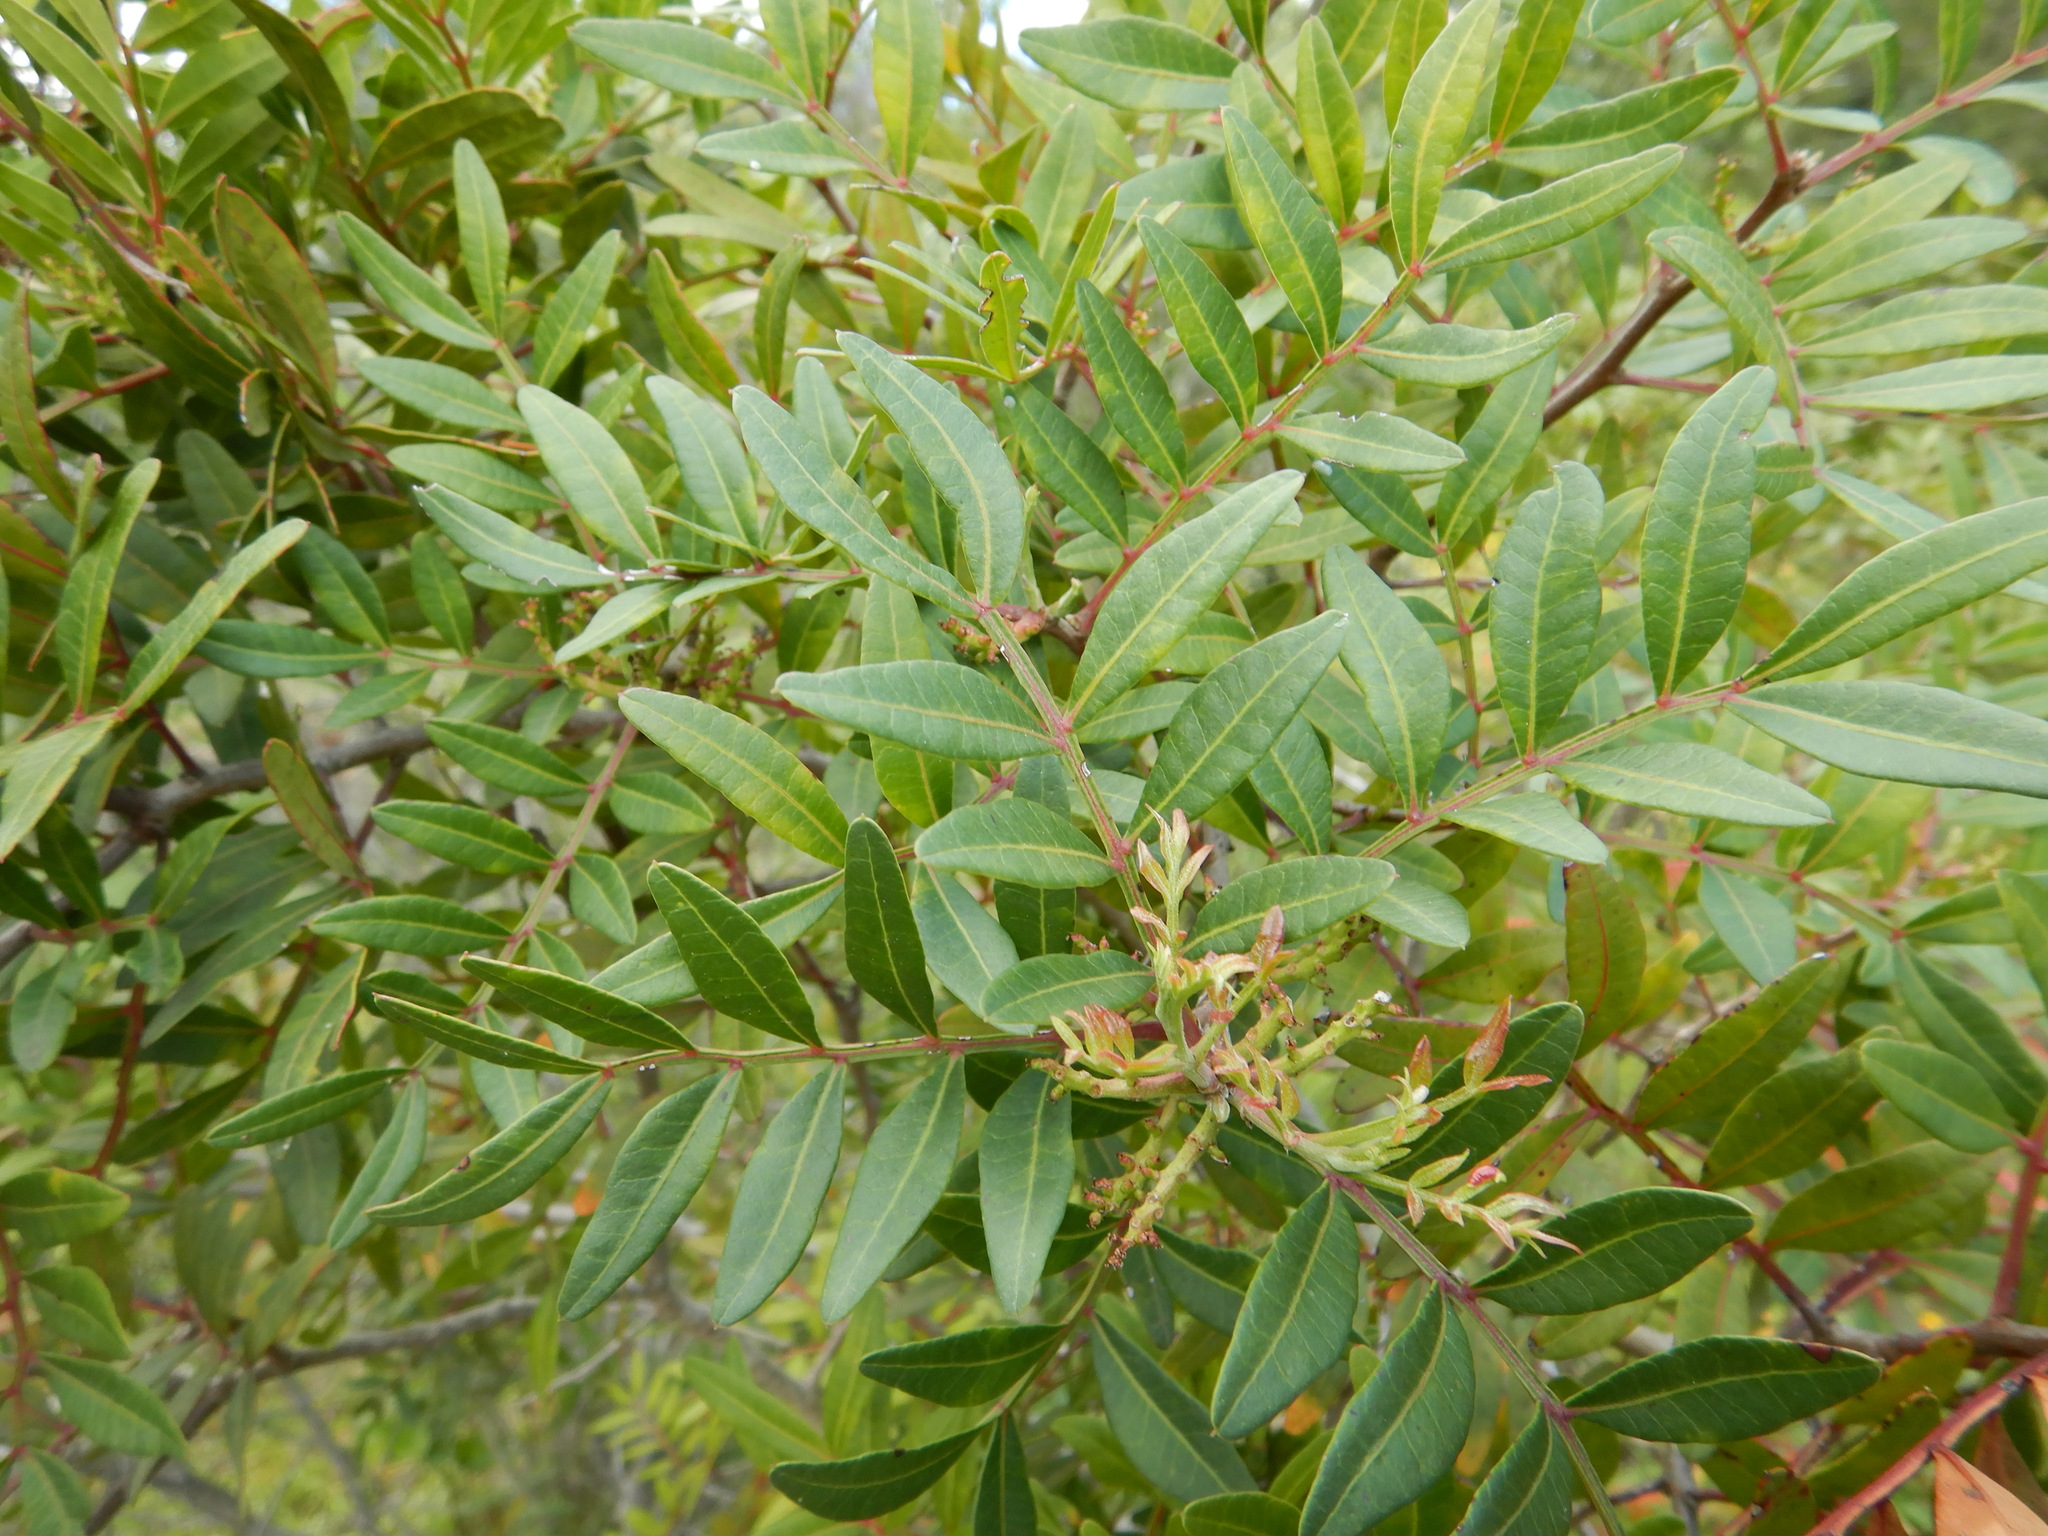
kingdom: Plantae
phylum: Tracheophyta
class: Magnoliopsida
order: Sapindales
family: Anacardiaceae
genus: Pistacia
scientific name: Pistacia lentiscus
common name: Lentisk
